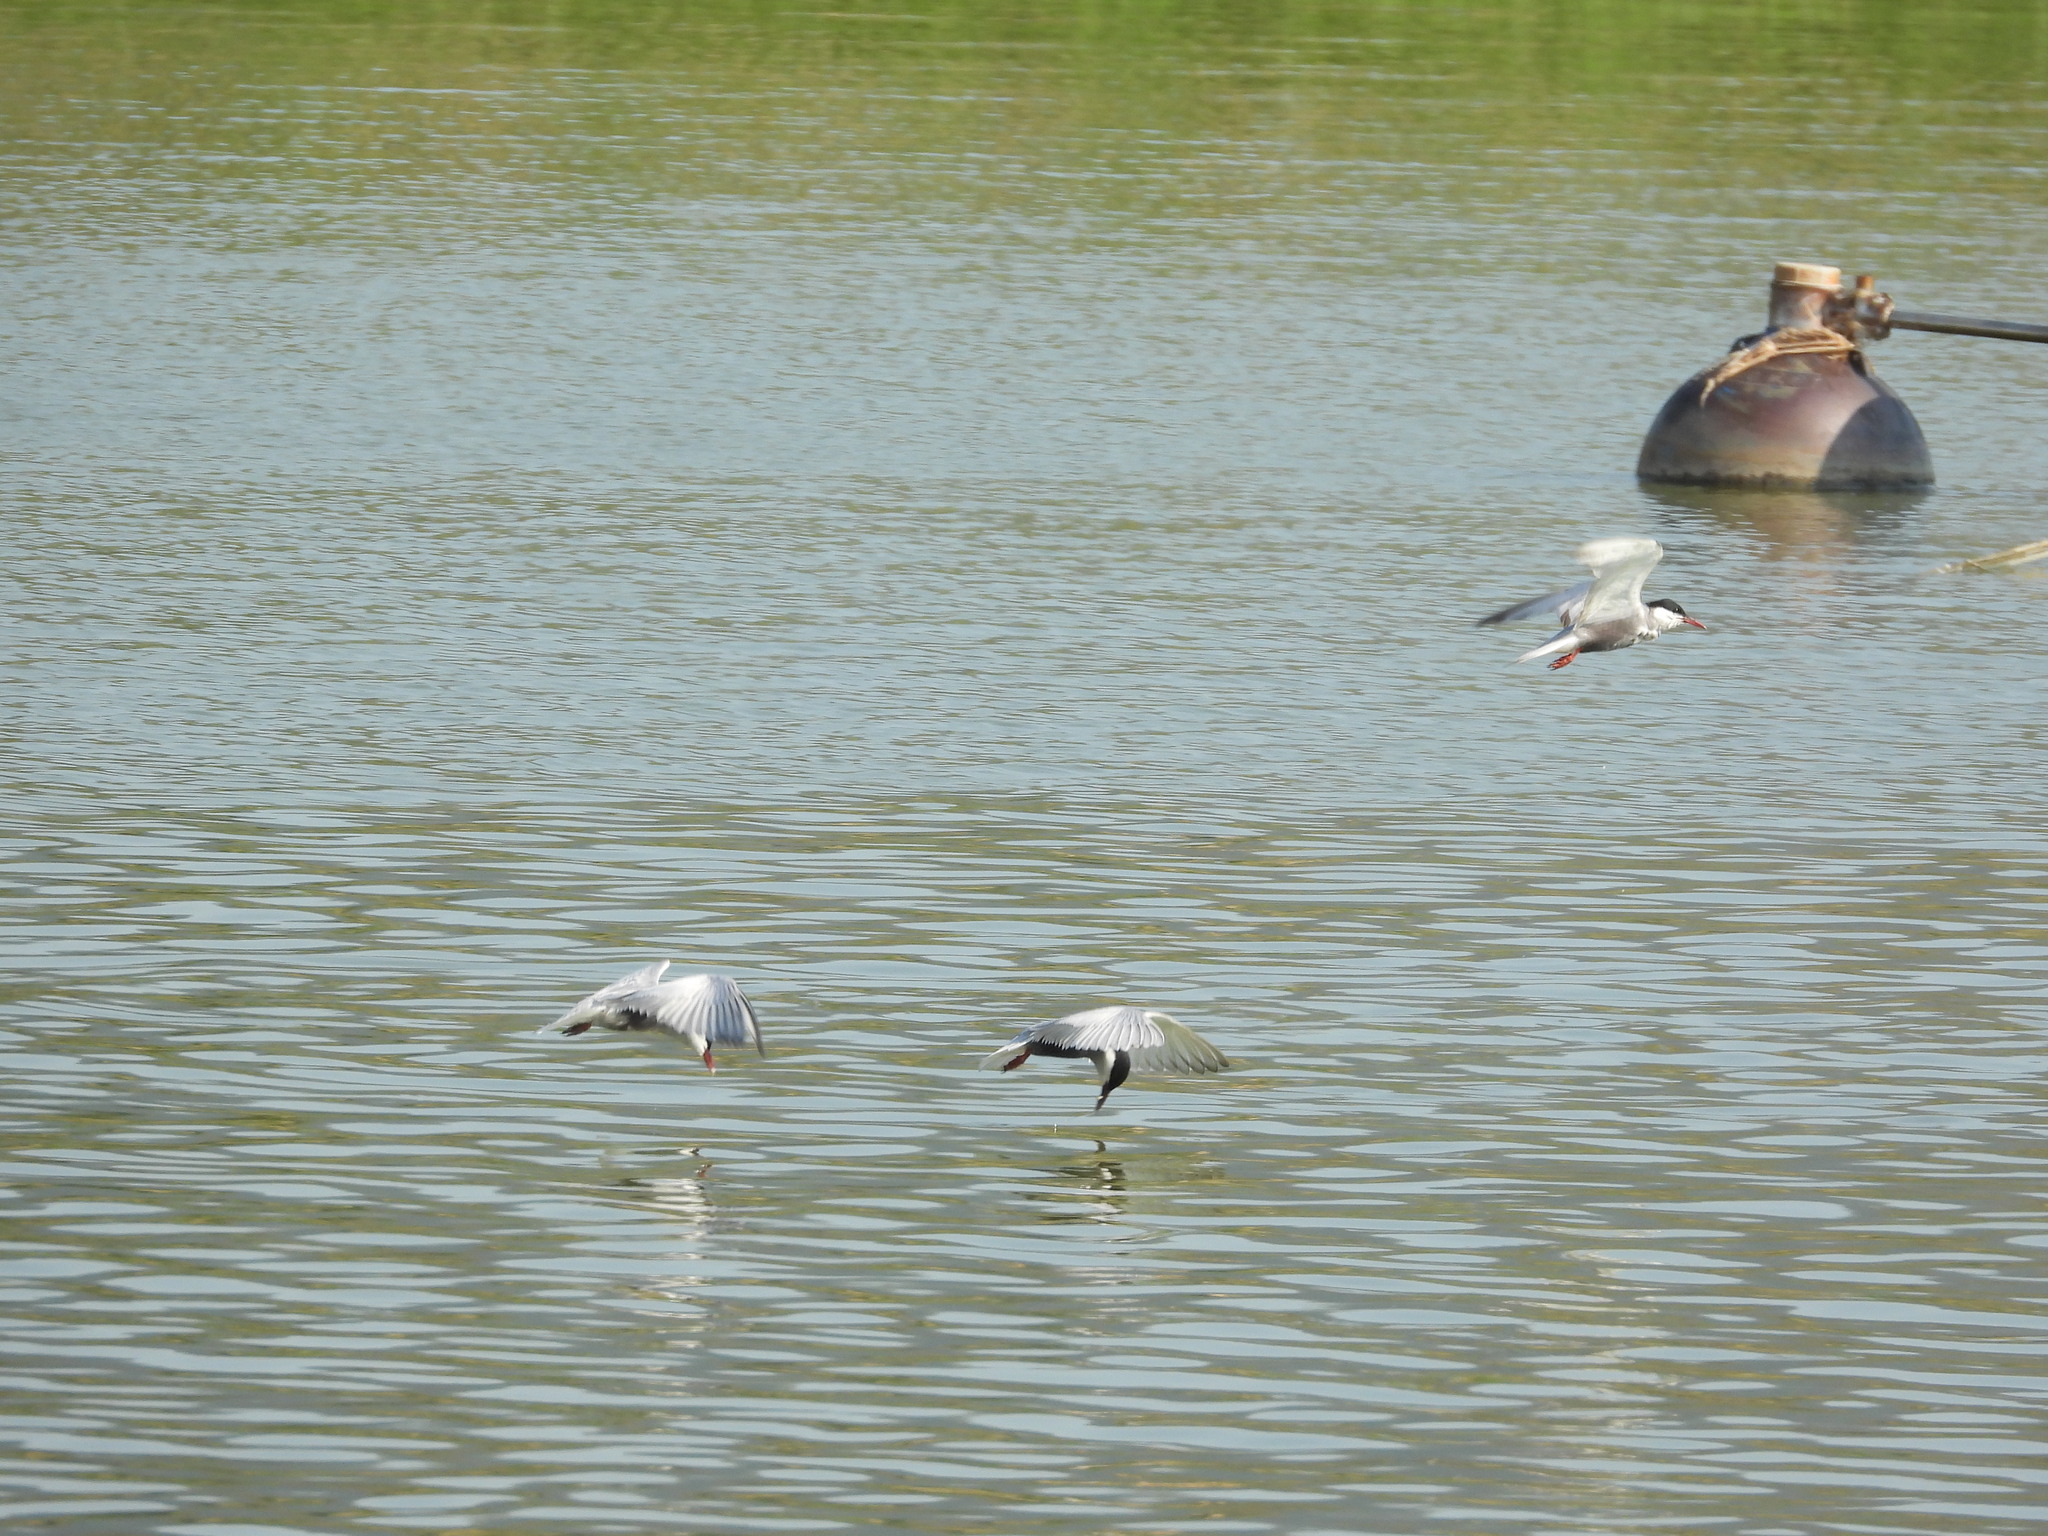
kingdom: Animalia
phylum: Chordata
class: Aves
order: Charadriiformes
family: Laridae
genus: Chlidonias
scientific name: Chlidonias hybrida
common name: Whiskered tern
